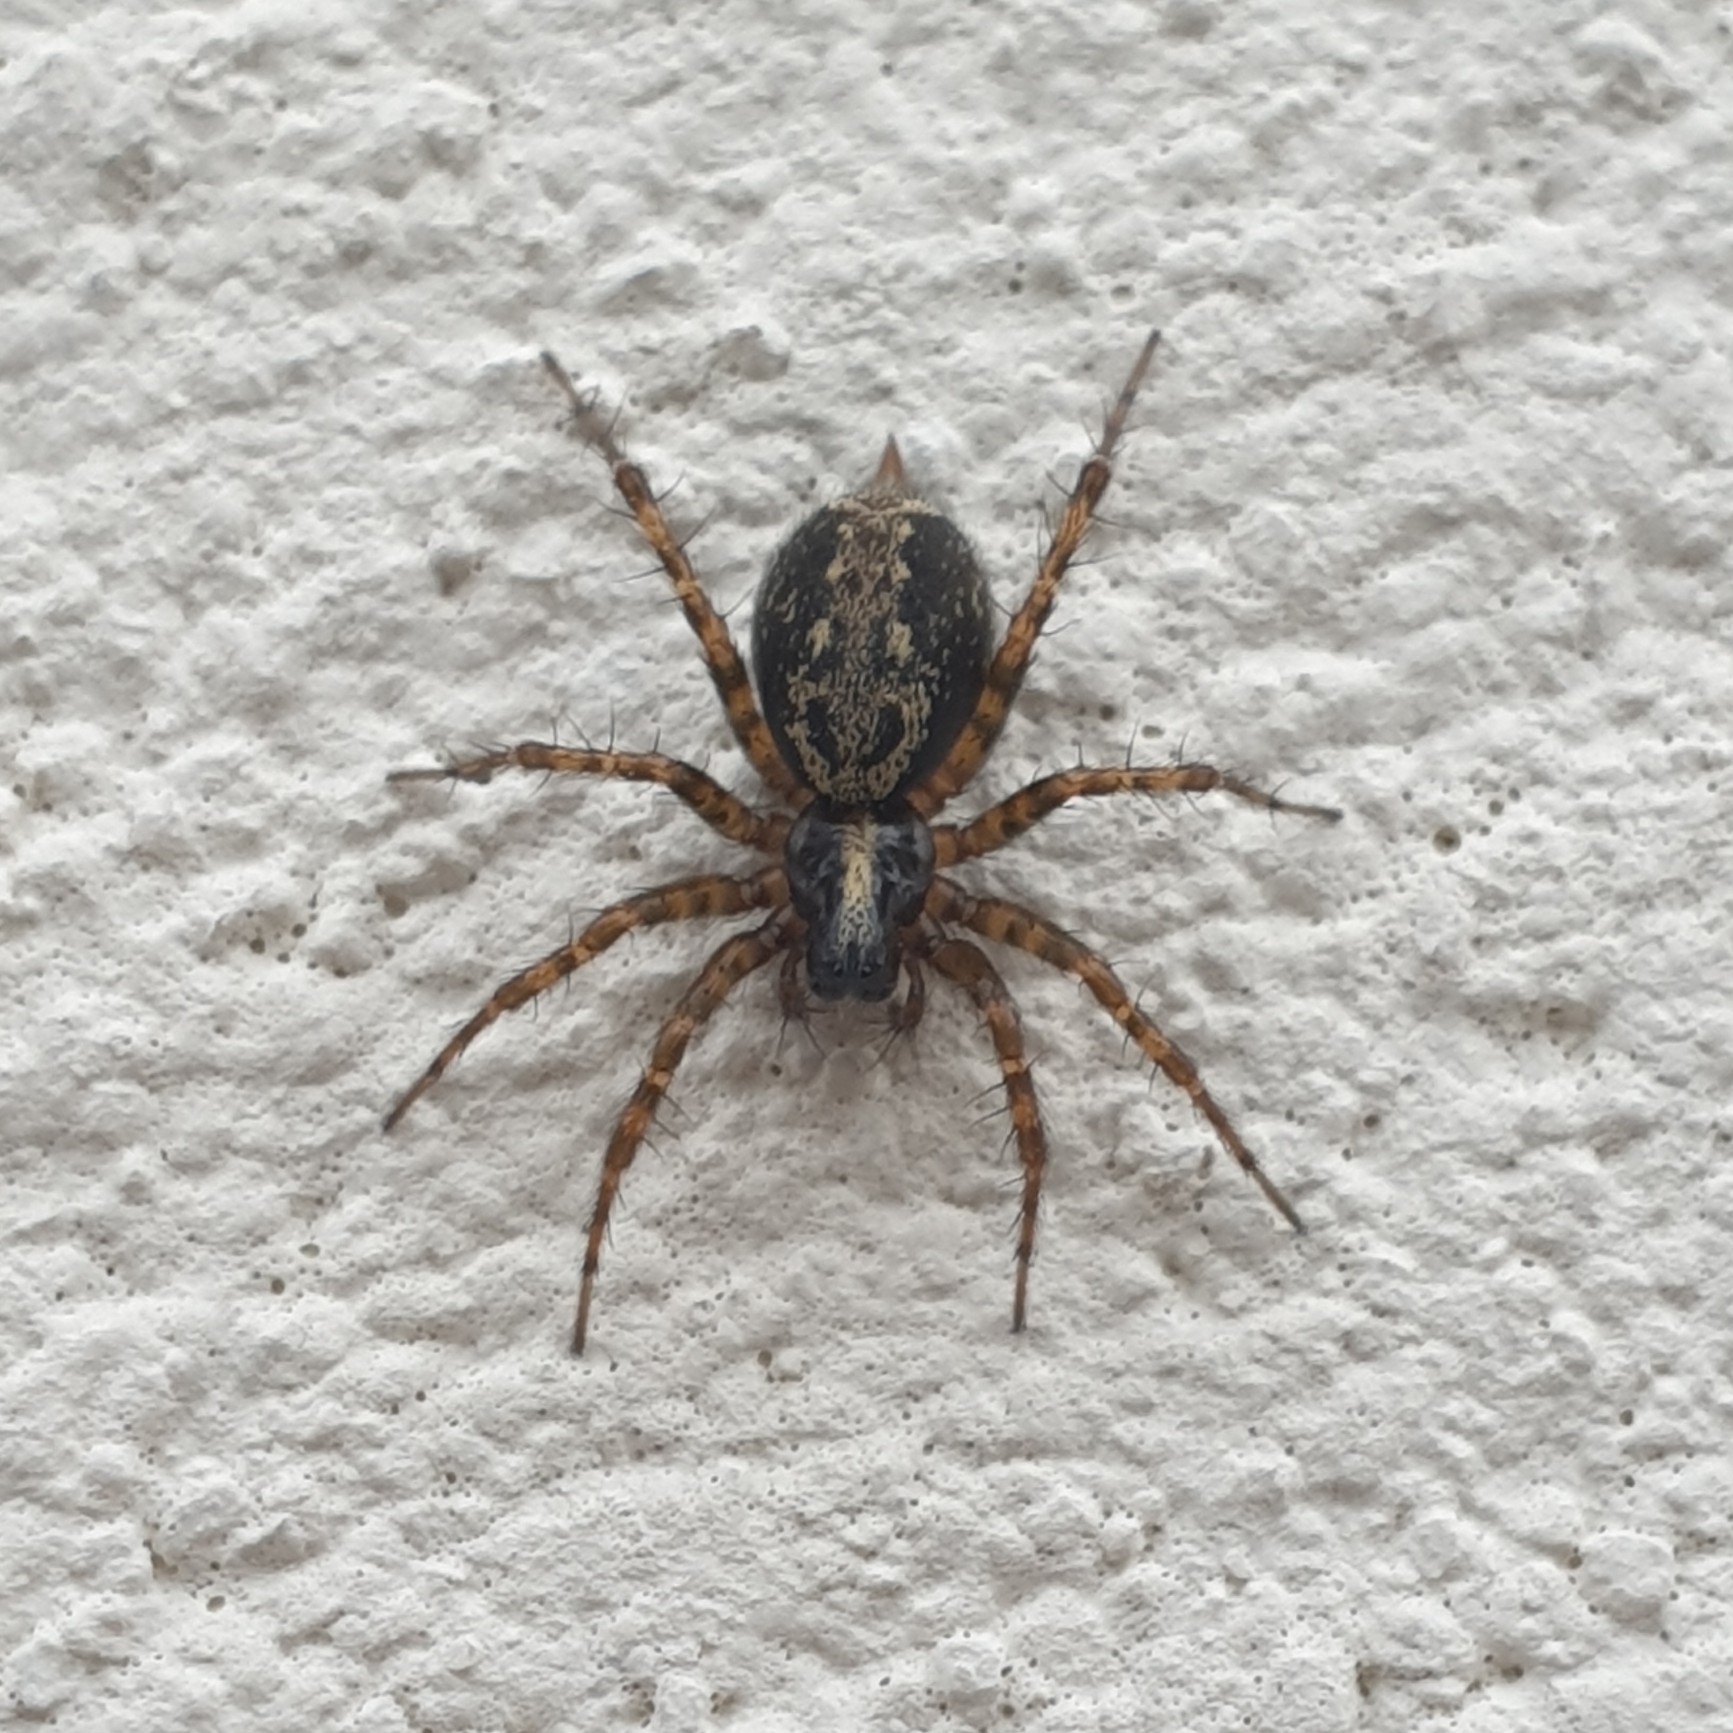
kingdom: Animalia
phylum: Arthropoda
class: Arachnida
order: Araneae
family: Agelenidae
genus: Textrix
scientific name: Textrix denticulata
